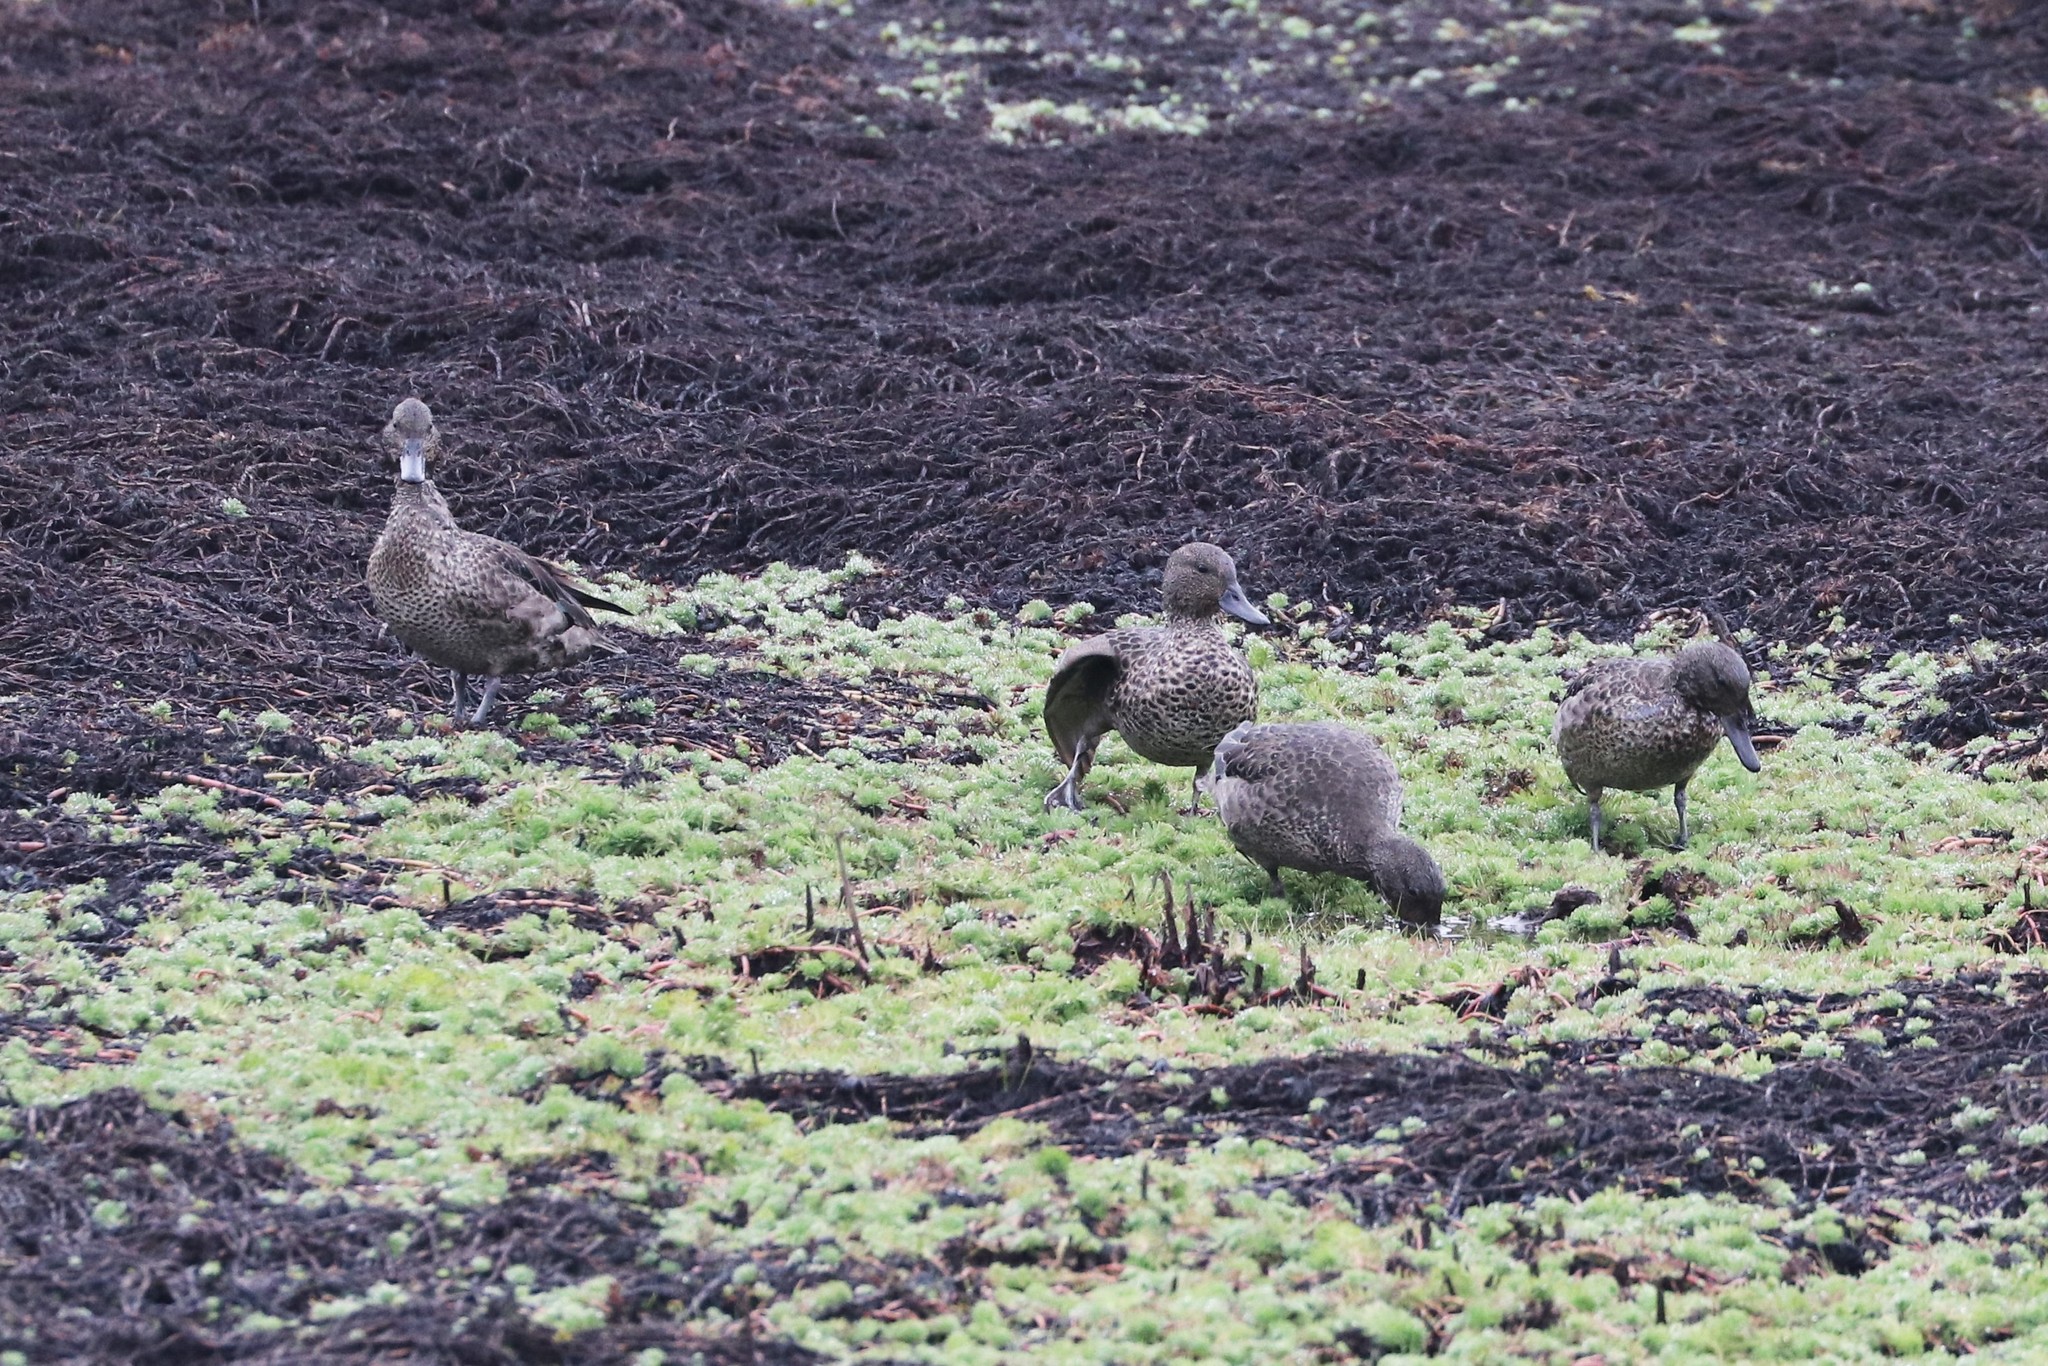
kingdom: Animalia
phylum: Chordata
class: Aves
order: Anseriformes
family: Anatidae
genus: Anas
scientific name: Anas andium
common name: Andean teal
